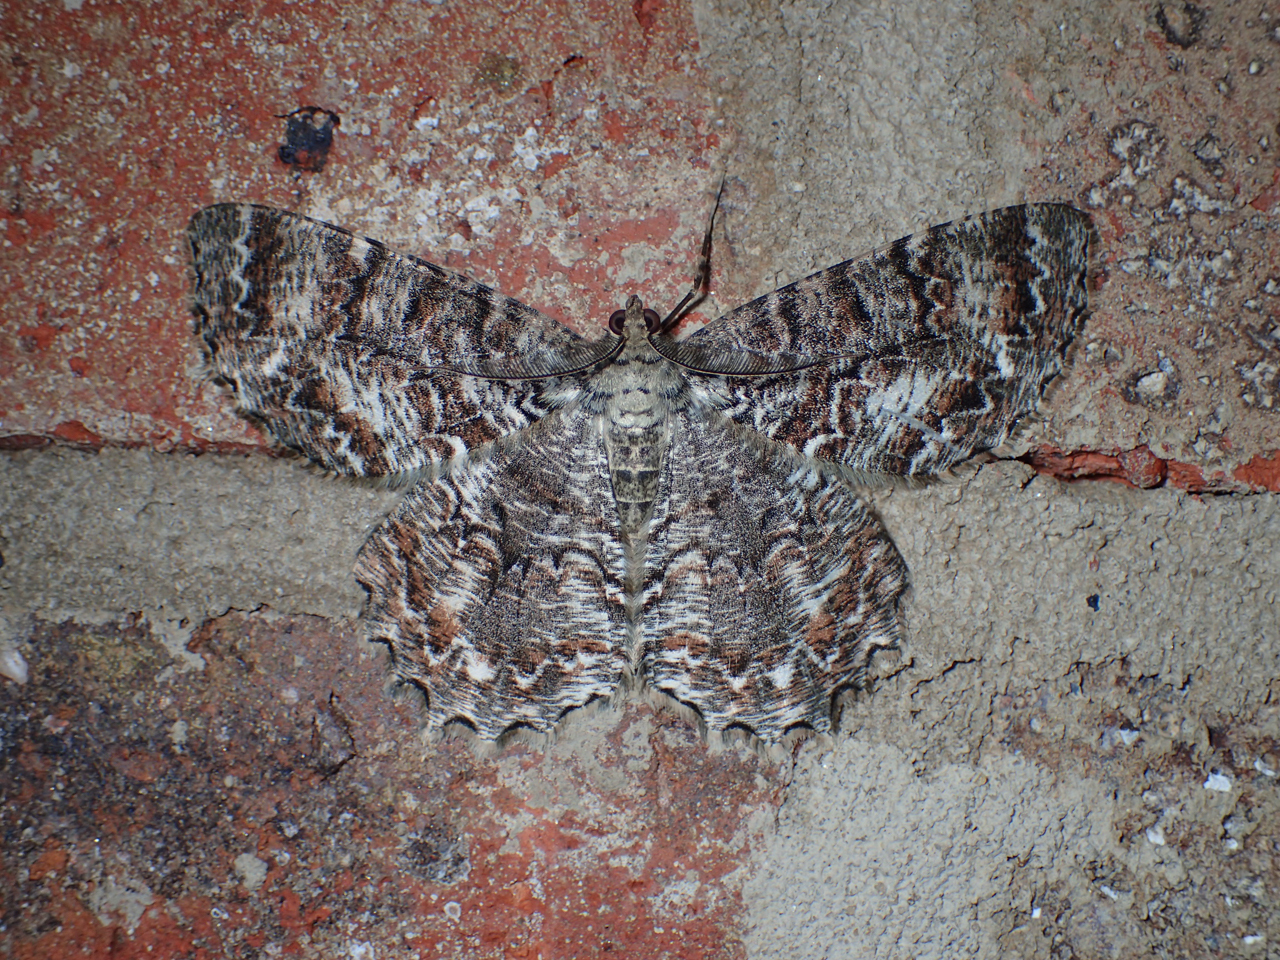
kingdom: Animalia
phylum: Arthropoda
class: Insecta
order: Lepidoptera
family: Geometridae
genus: Epimecis
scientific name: Epimecis hortaria
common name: Tulip-tree beauty
